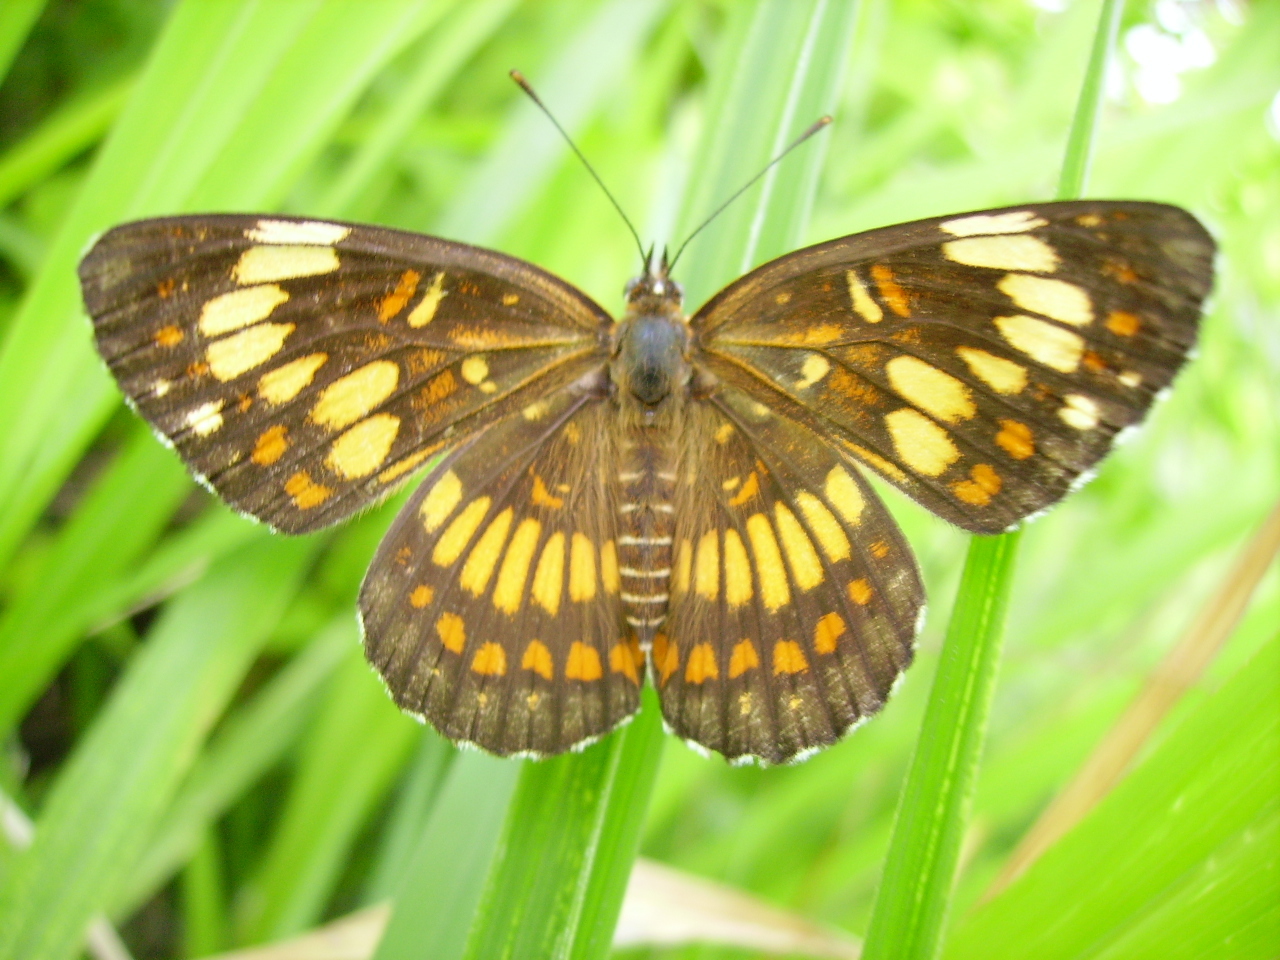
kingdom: Animalia
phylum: Arthropoda
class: Insecta
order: Lepidoptera
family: Nymphalidae
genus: Thessalia
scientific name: Thessalia theona
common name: Nymphalid moth
